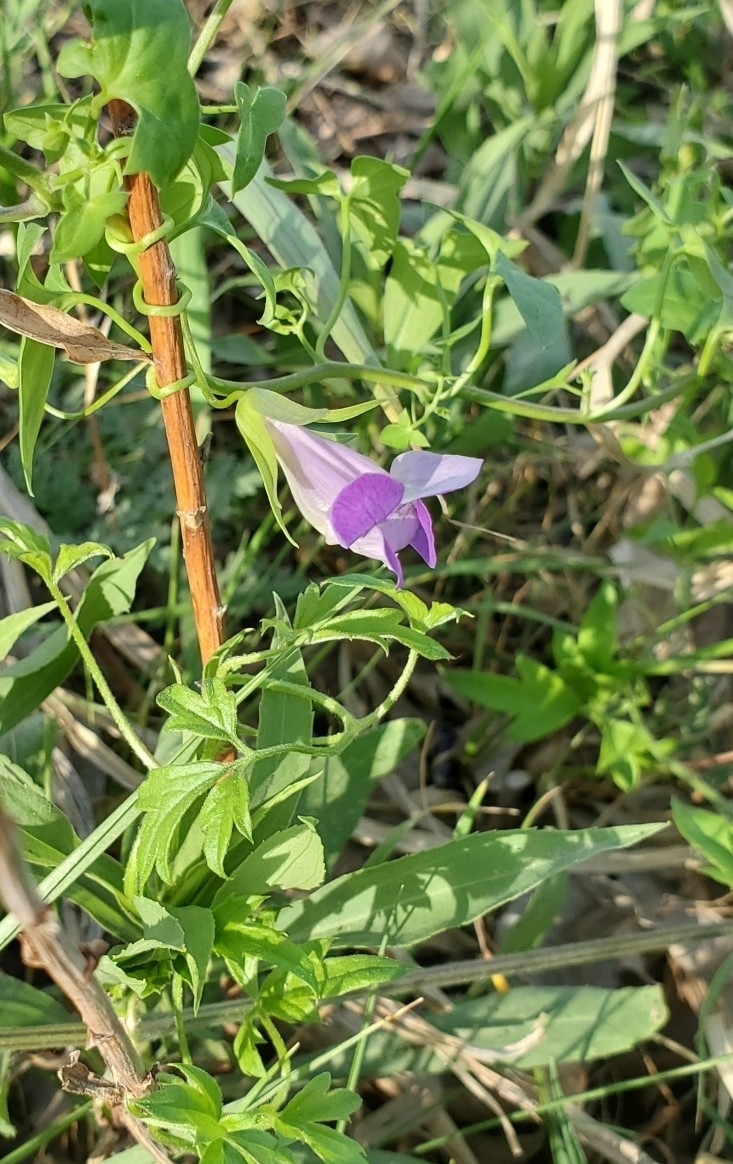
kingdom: Plantae
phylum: Tracheophyta
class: Magnoliopsida
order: Lamiales
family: Plantaginaceae
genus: Maurandella
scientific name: Maurandella antirrhiniflora
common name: Violet twining-snapdragon
